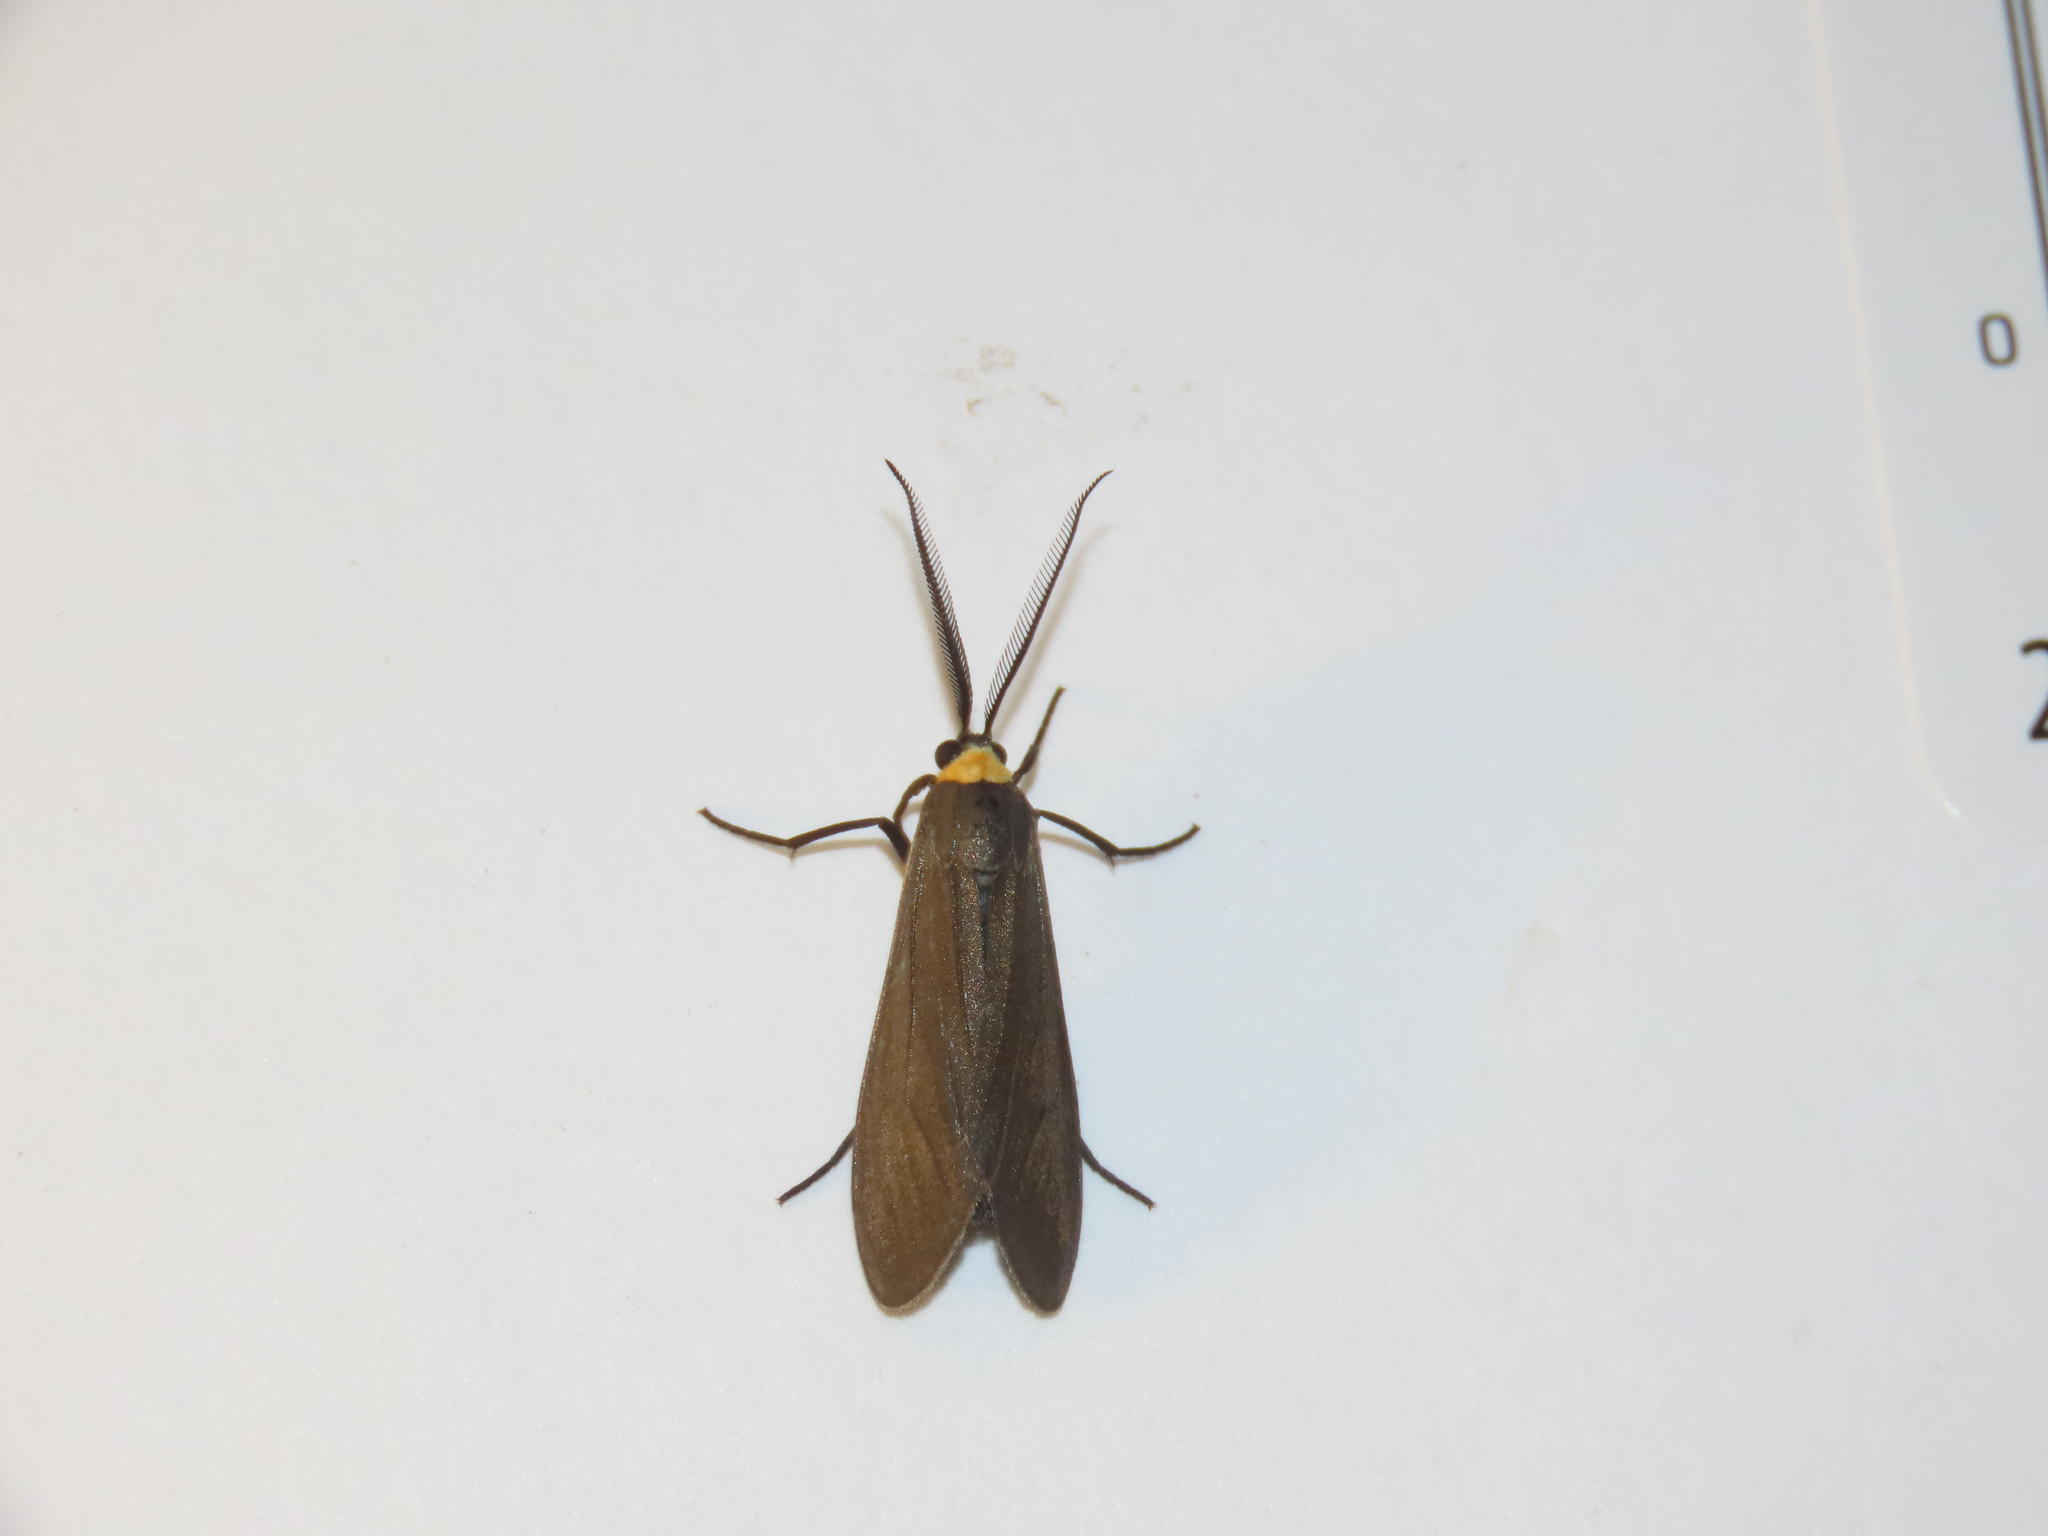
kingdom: Animalia
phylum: Arthropoda
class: Insecta
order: Lepidoptera
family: Erebidae
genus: Cisseps
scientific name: Cisseps fulvicollis
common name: Yellow-collared scape moth
